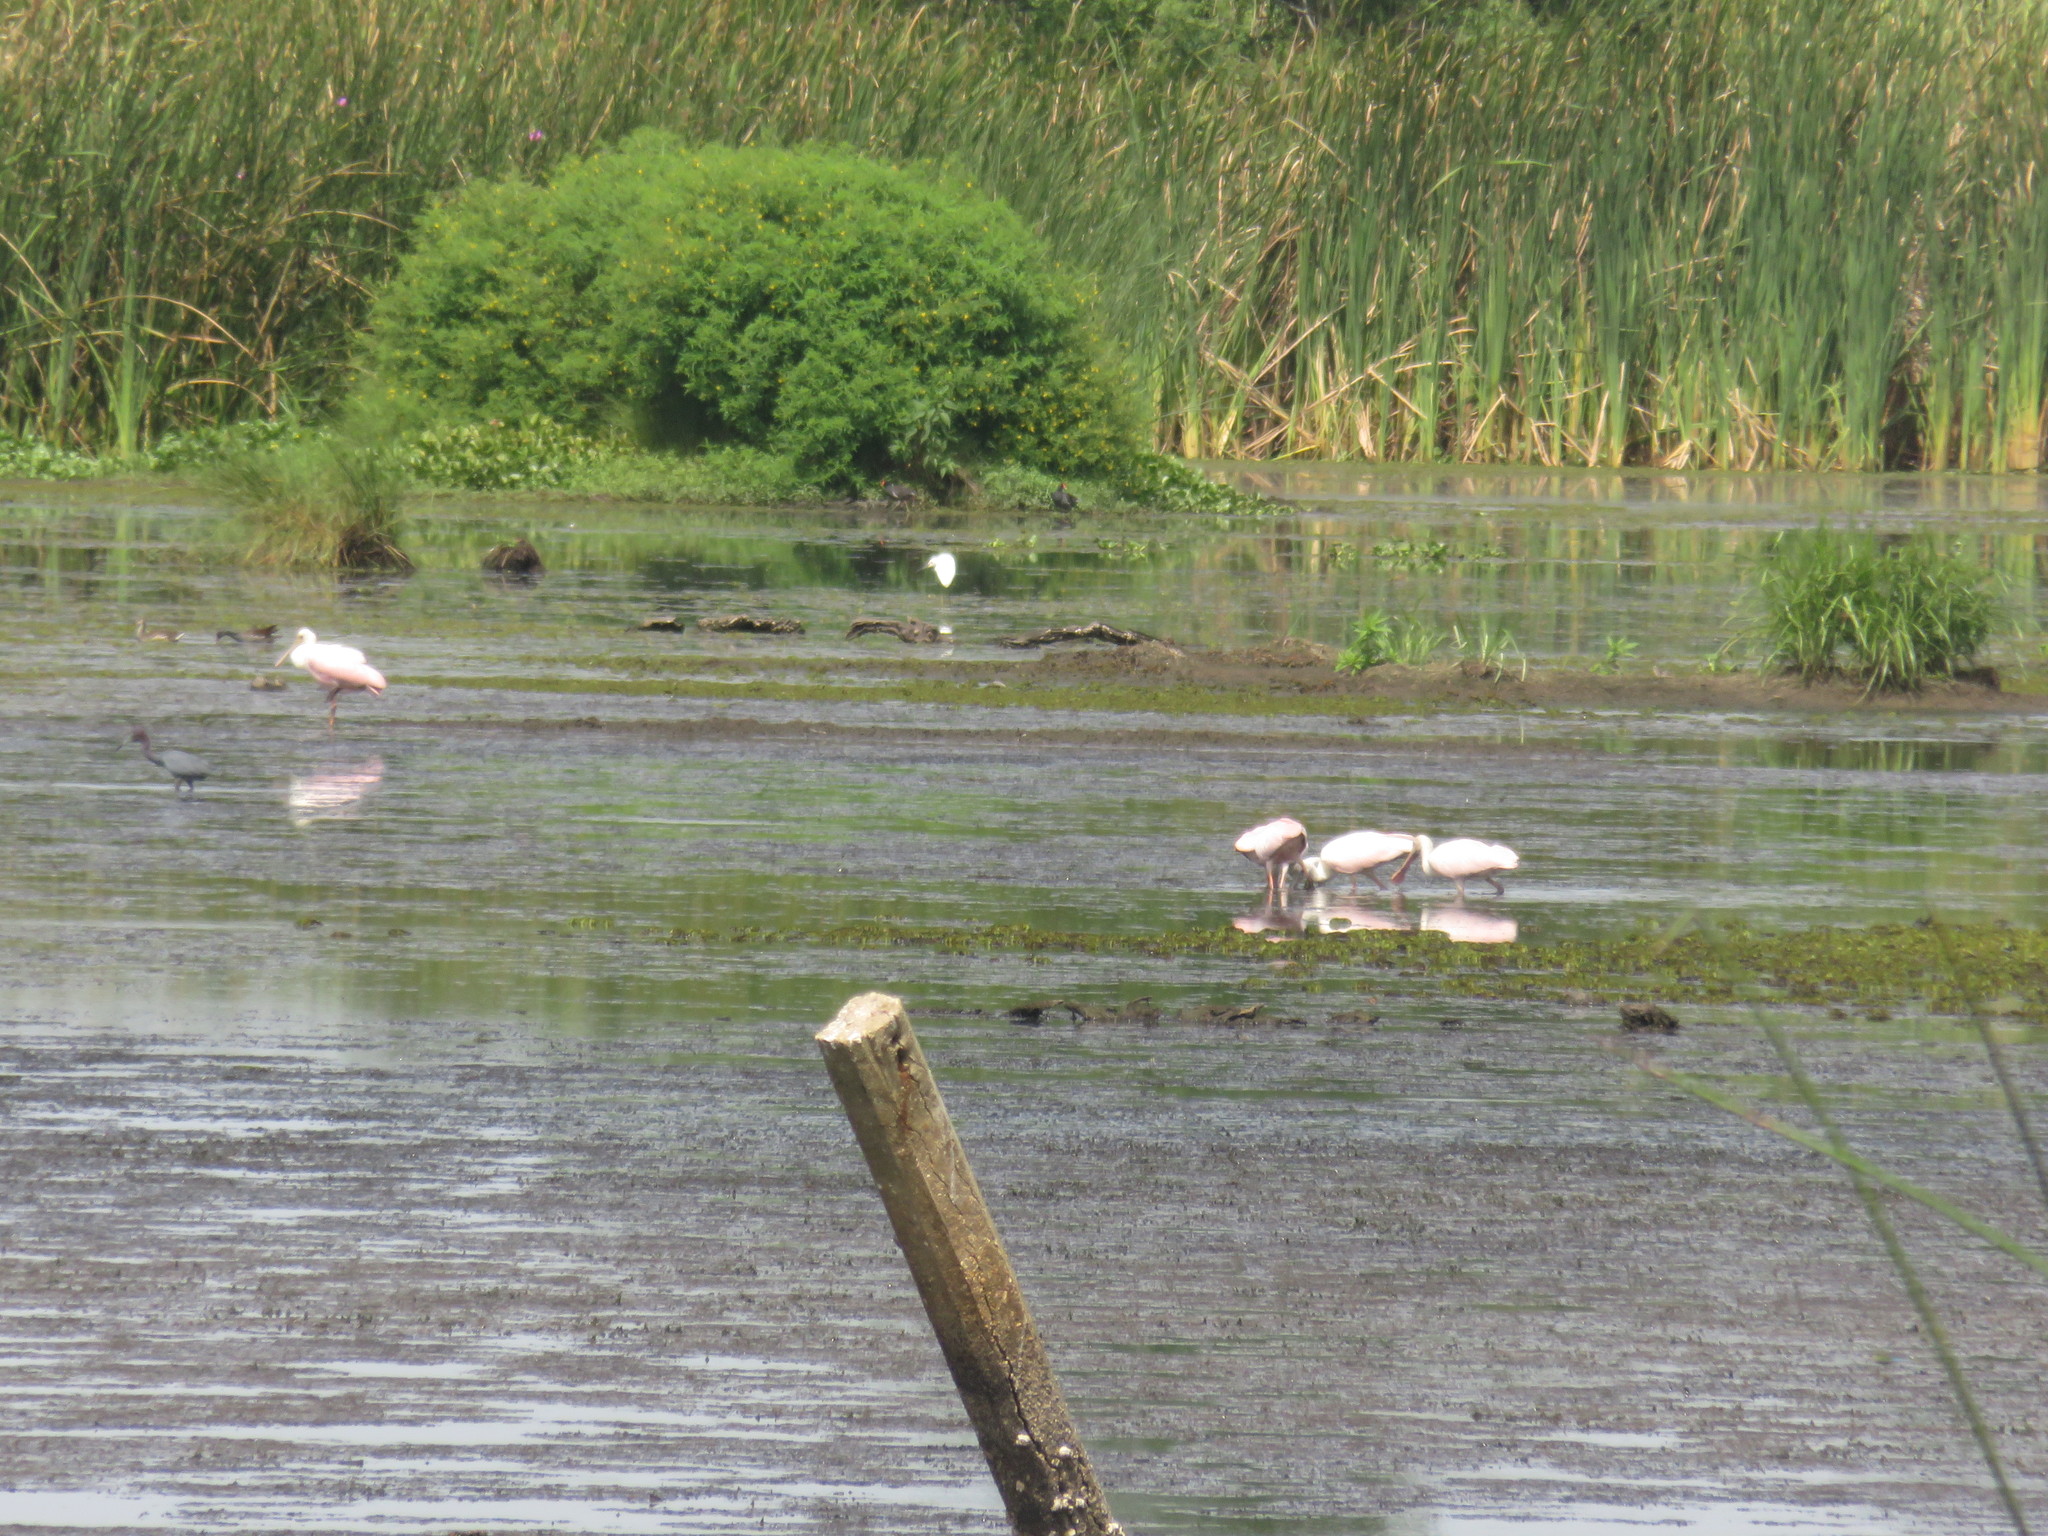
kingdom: Animalia
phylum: Chordata
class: Aves
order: Pelecaniformes
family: Threskiornithidae
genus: Platalea
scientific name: Platalea ajaja
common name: Roseate spoonbill
